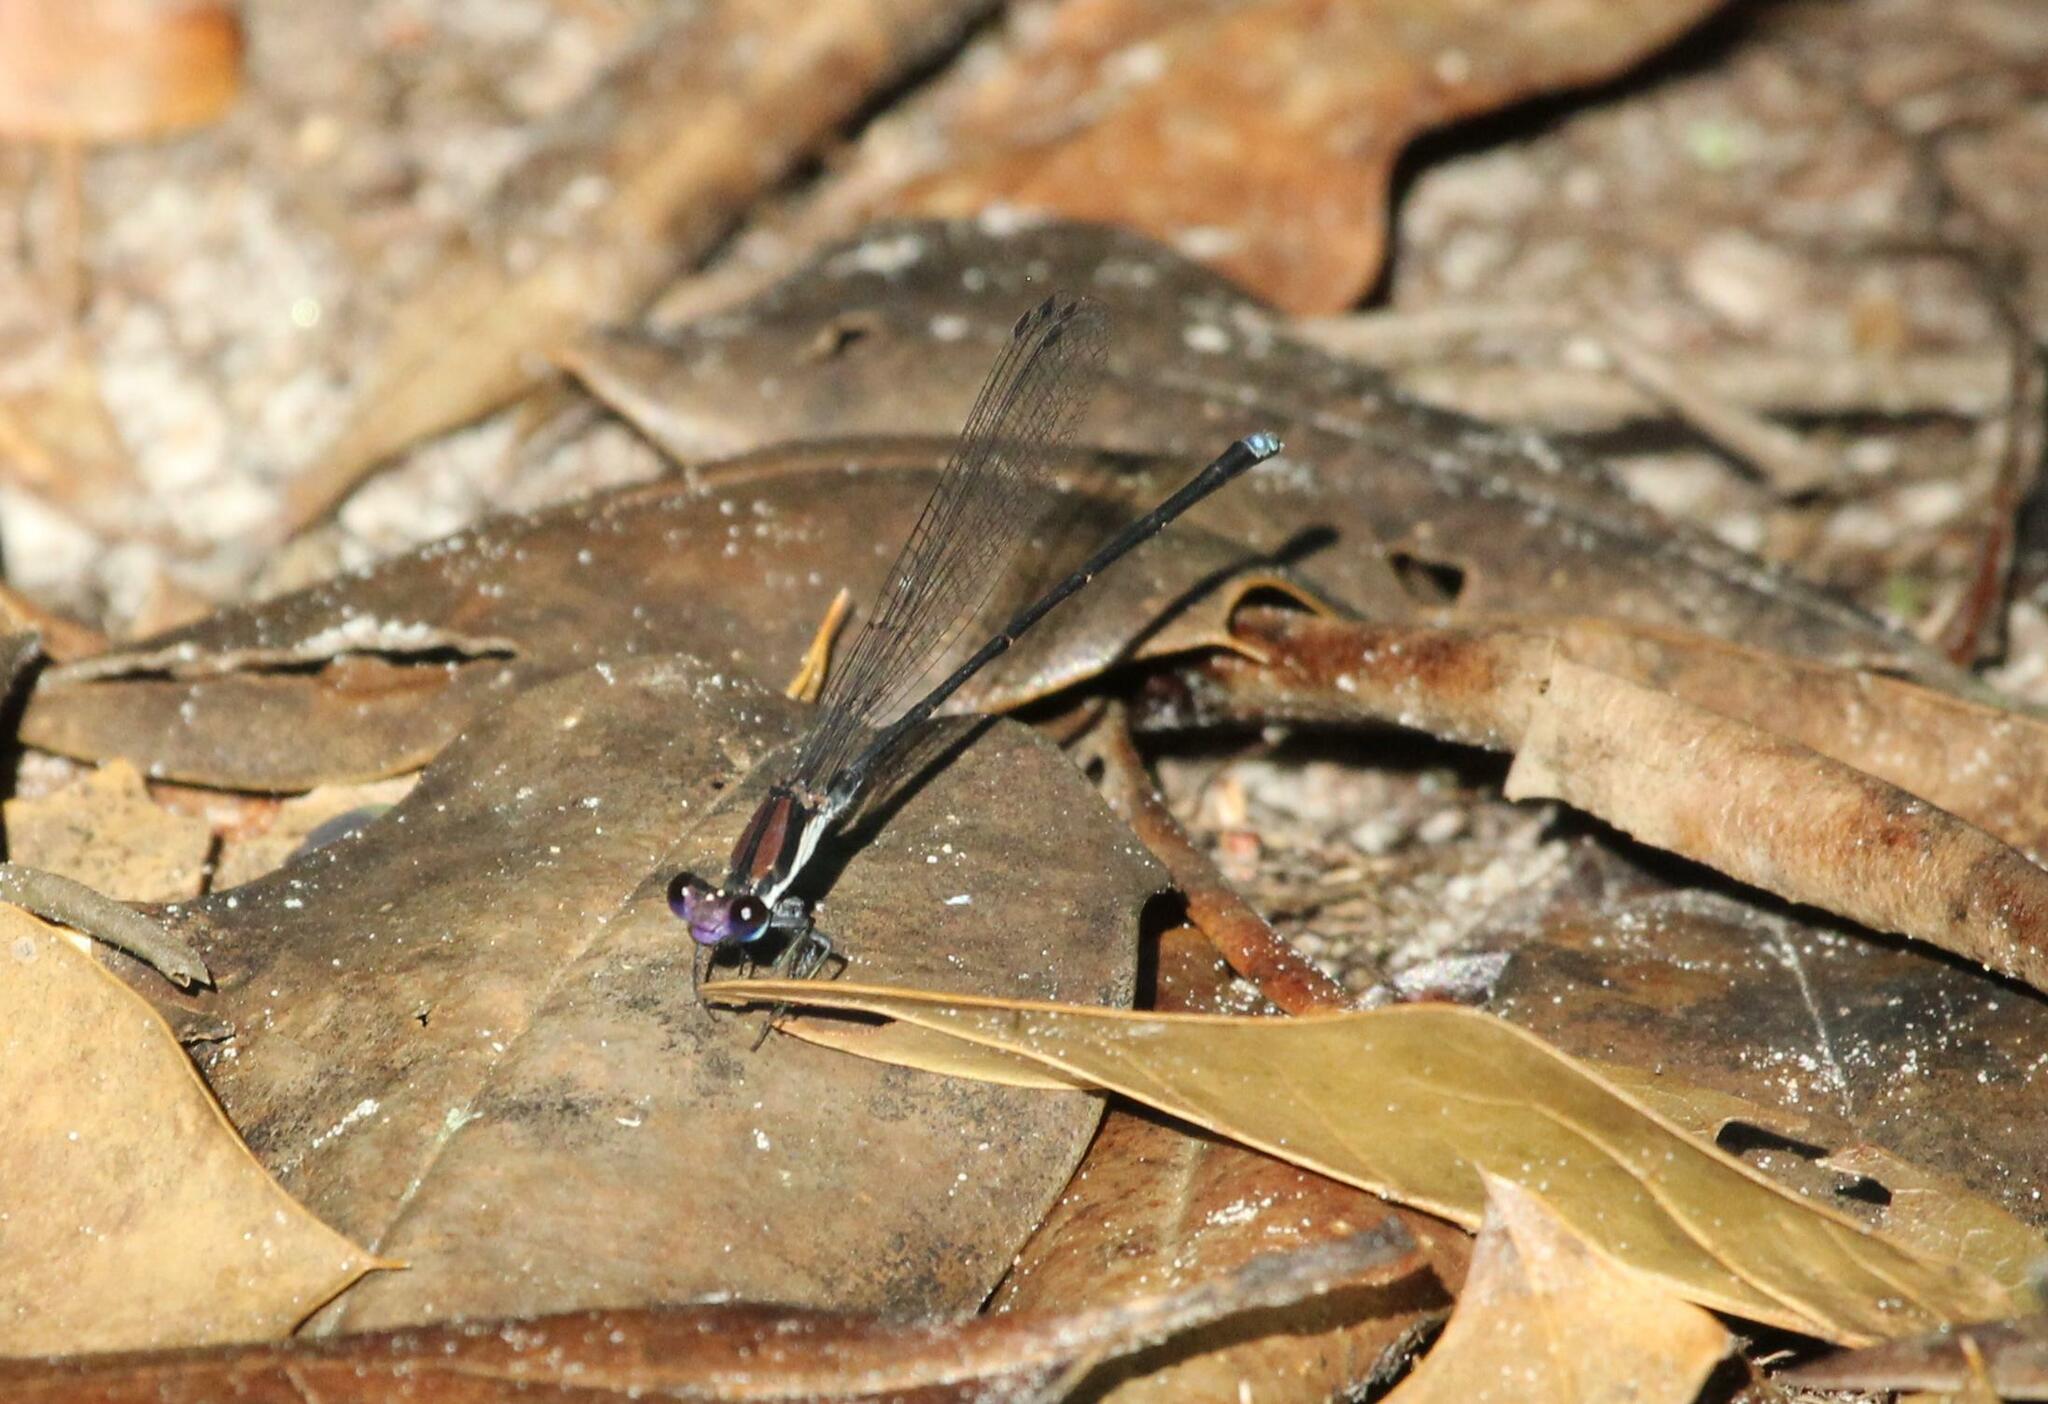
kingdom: Animalia
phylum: Arthropoda
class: Insecta
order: Odonata
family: Coenagrionidae
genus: Argia
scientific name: Argia tibialis
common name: Blue-tipped dancer
